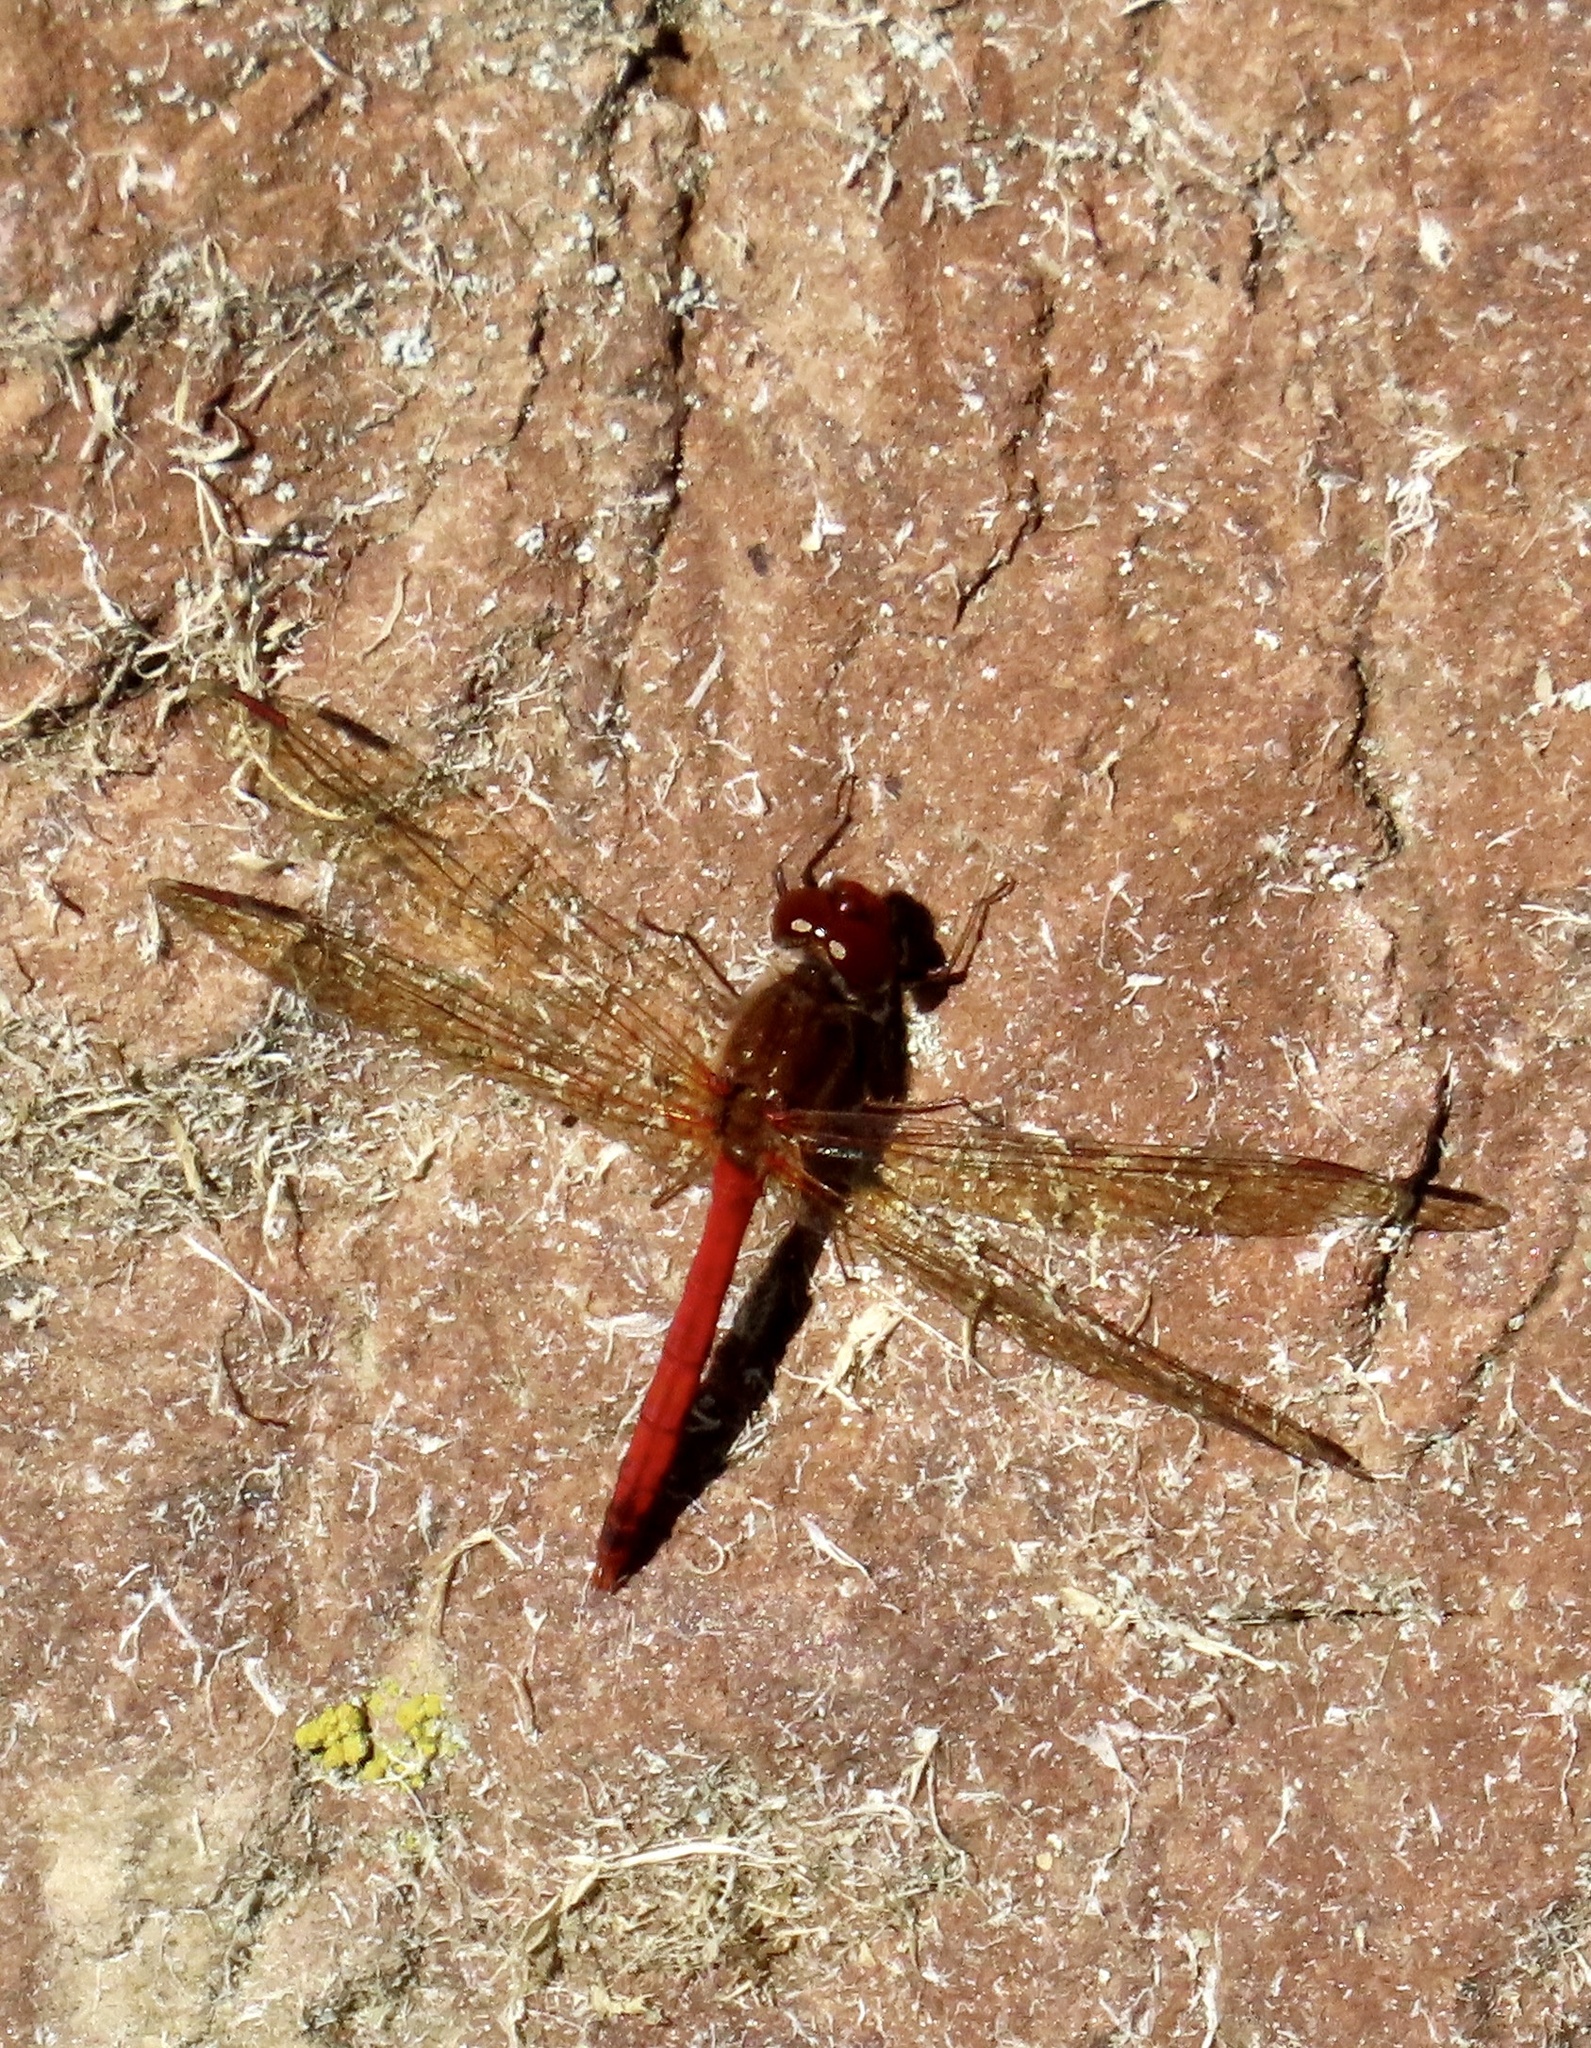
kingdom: Animalia
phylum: Arthropoda
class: Insecta
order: Odonata
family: Libellulidae
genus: Sympetrum
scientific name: Sympetrum vicinum
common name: Autumn meadowhawk
